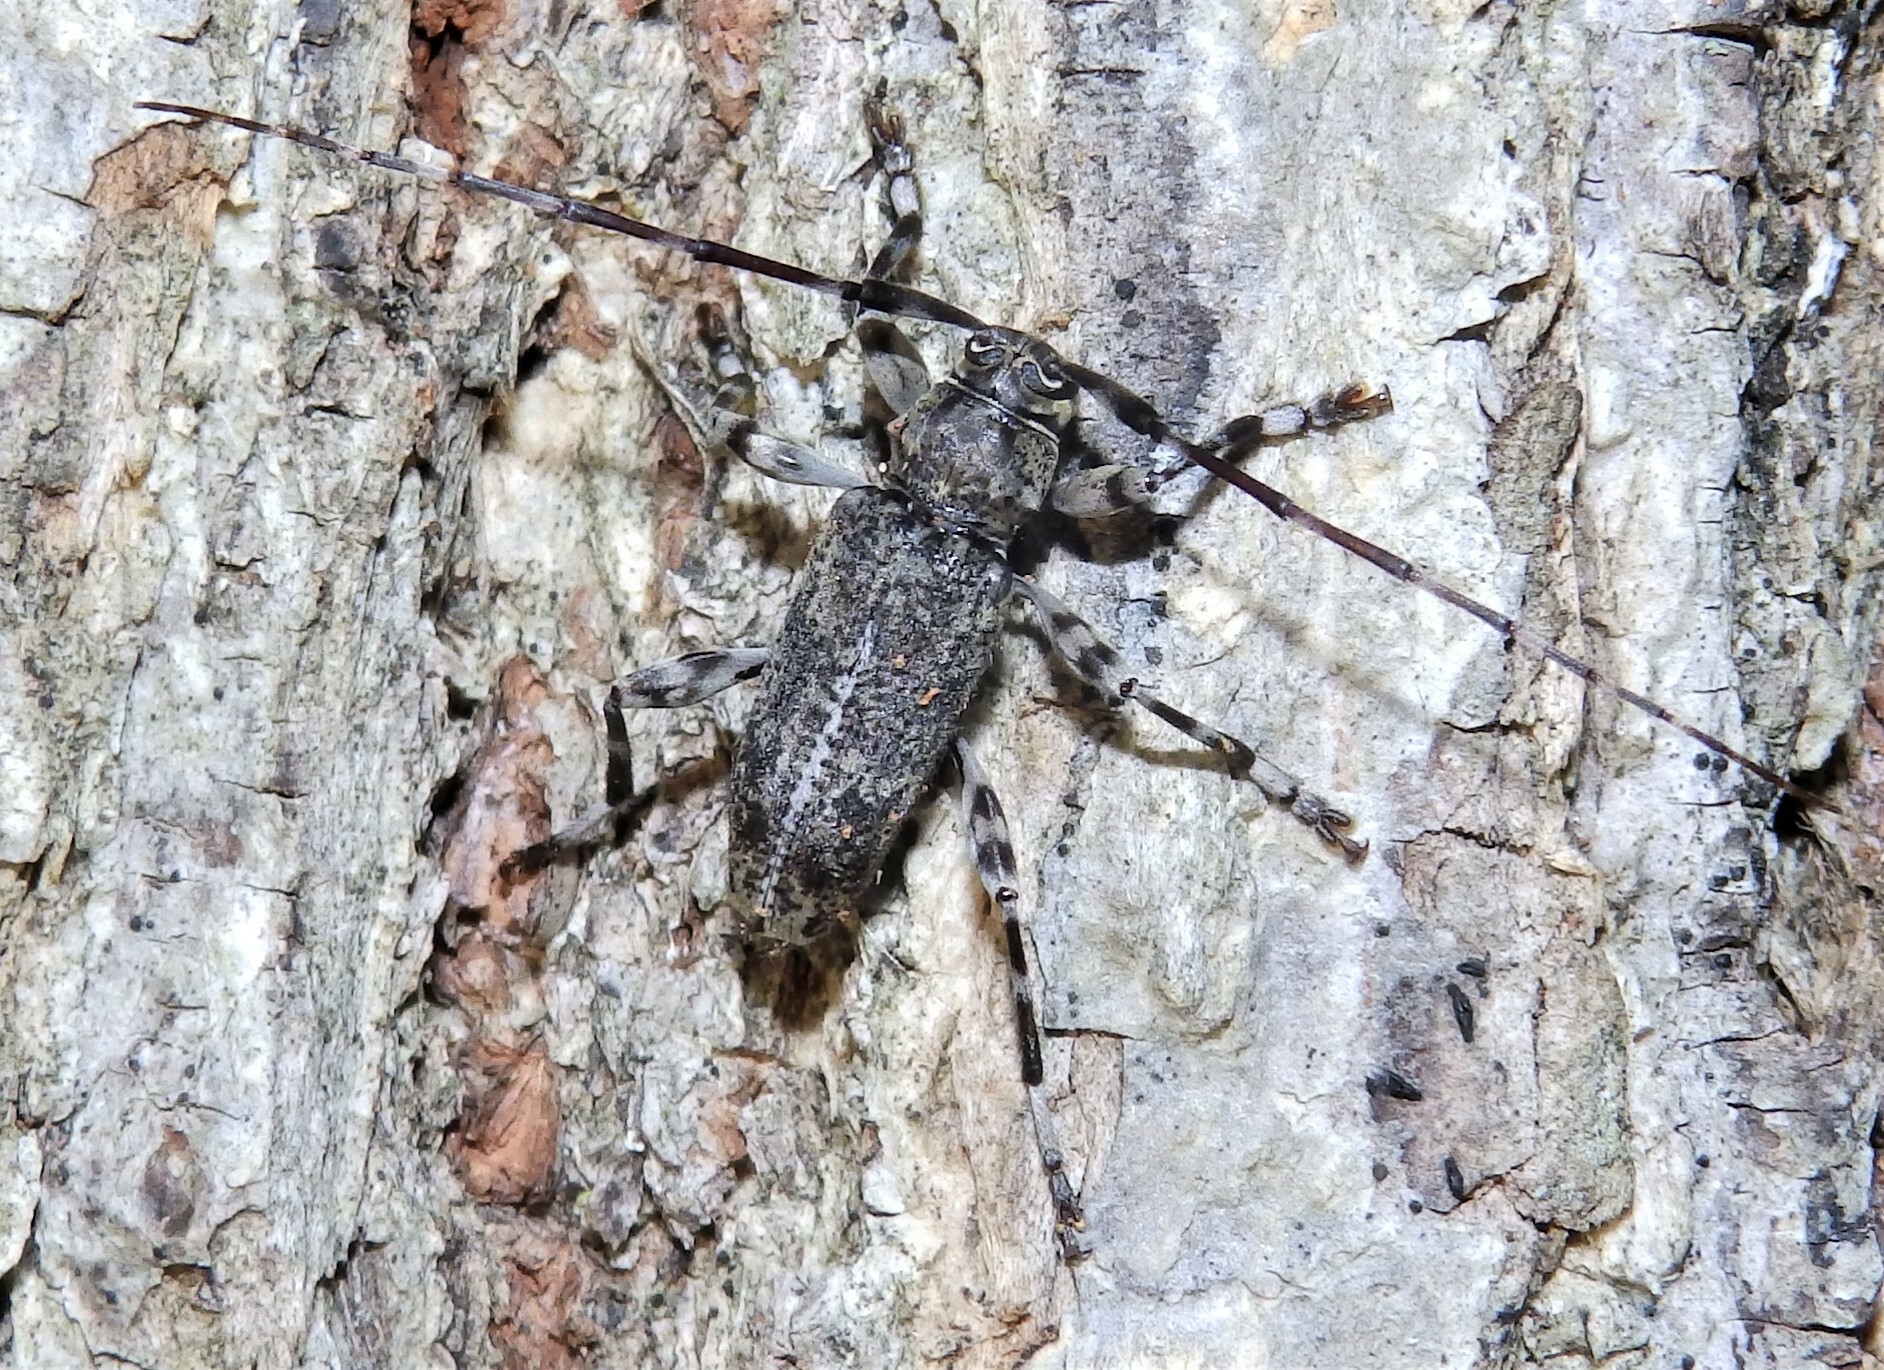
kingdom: Animalia
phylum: Arthropoda
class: Insecta
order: Coleoptera
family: Cerambycidae
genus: Graphisurus
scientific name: Graphisurus fasciatus
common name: Banded graphisurus
